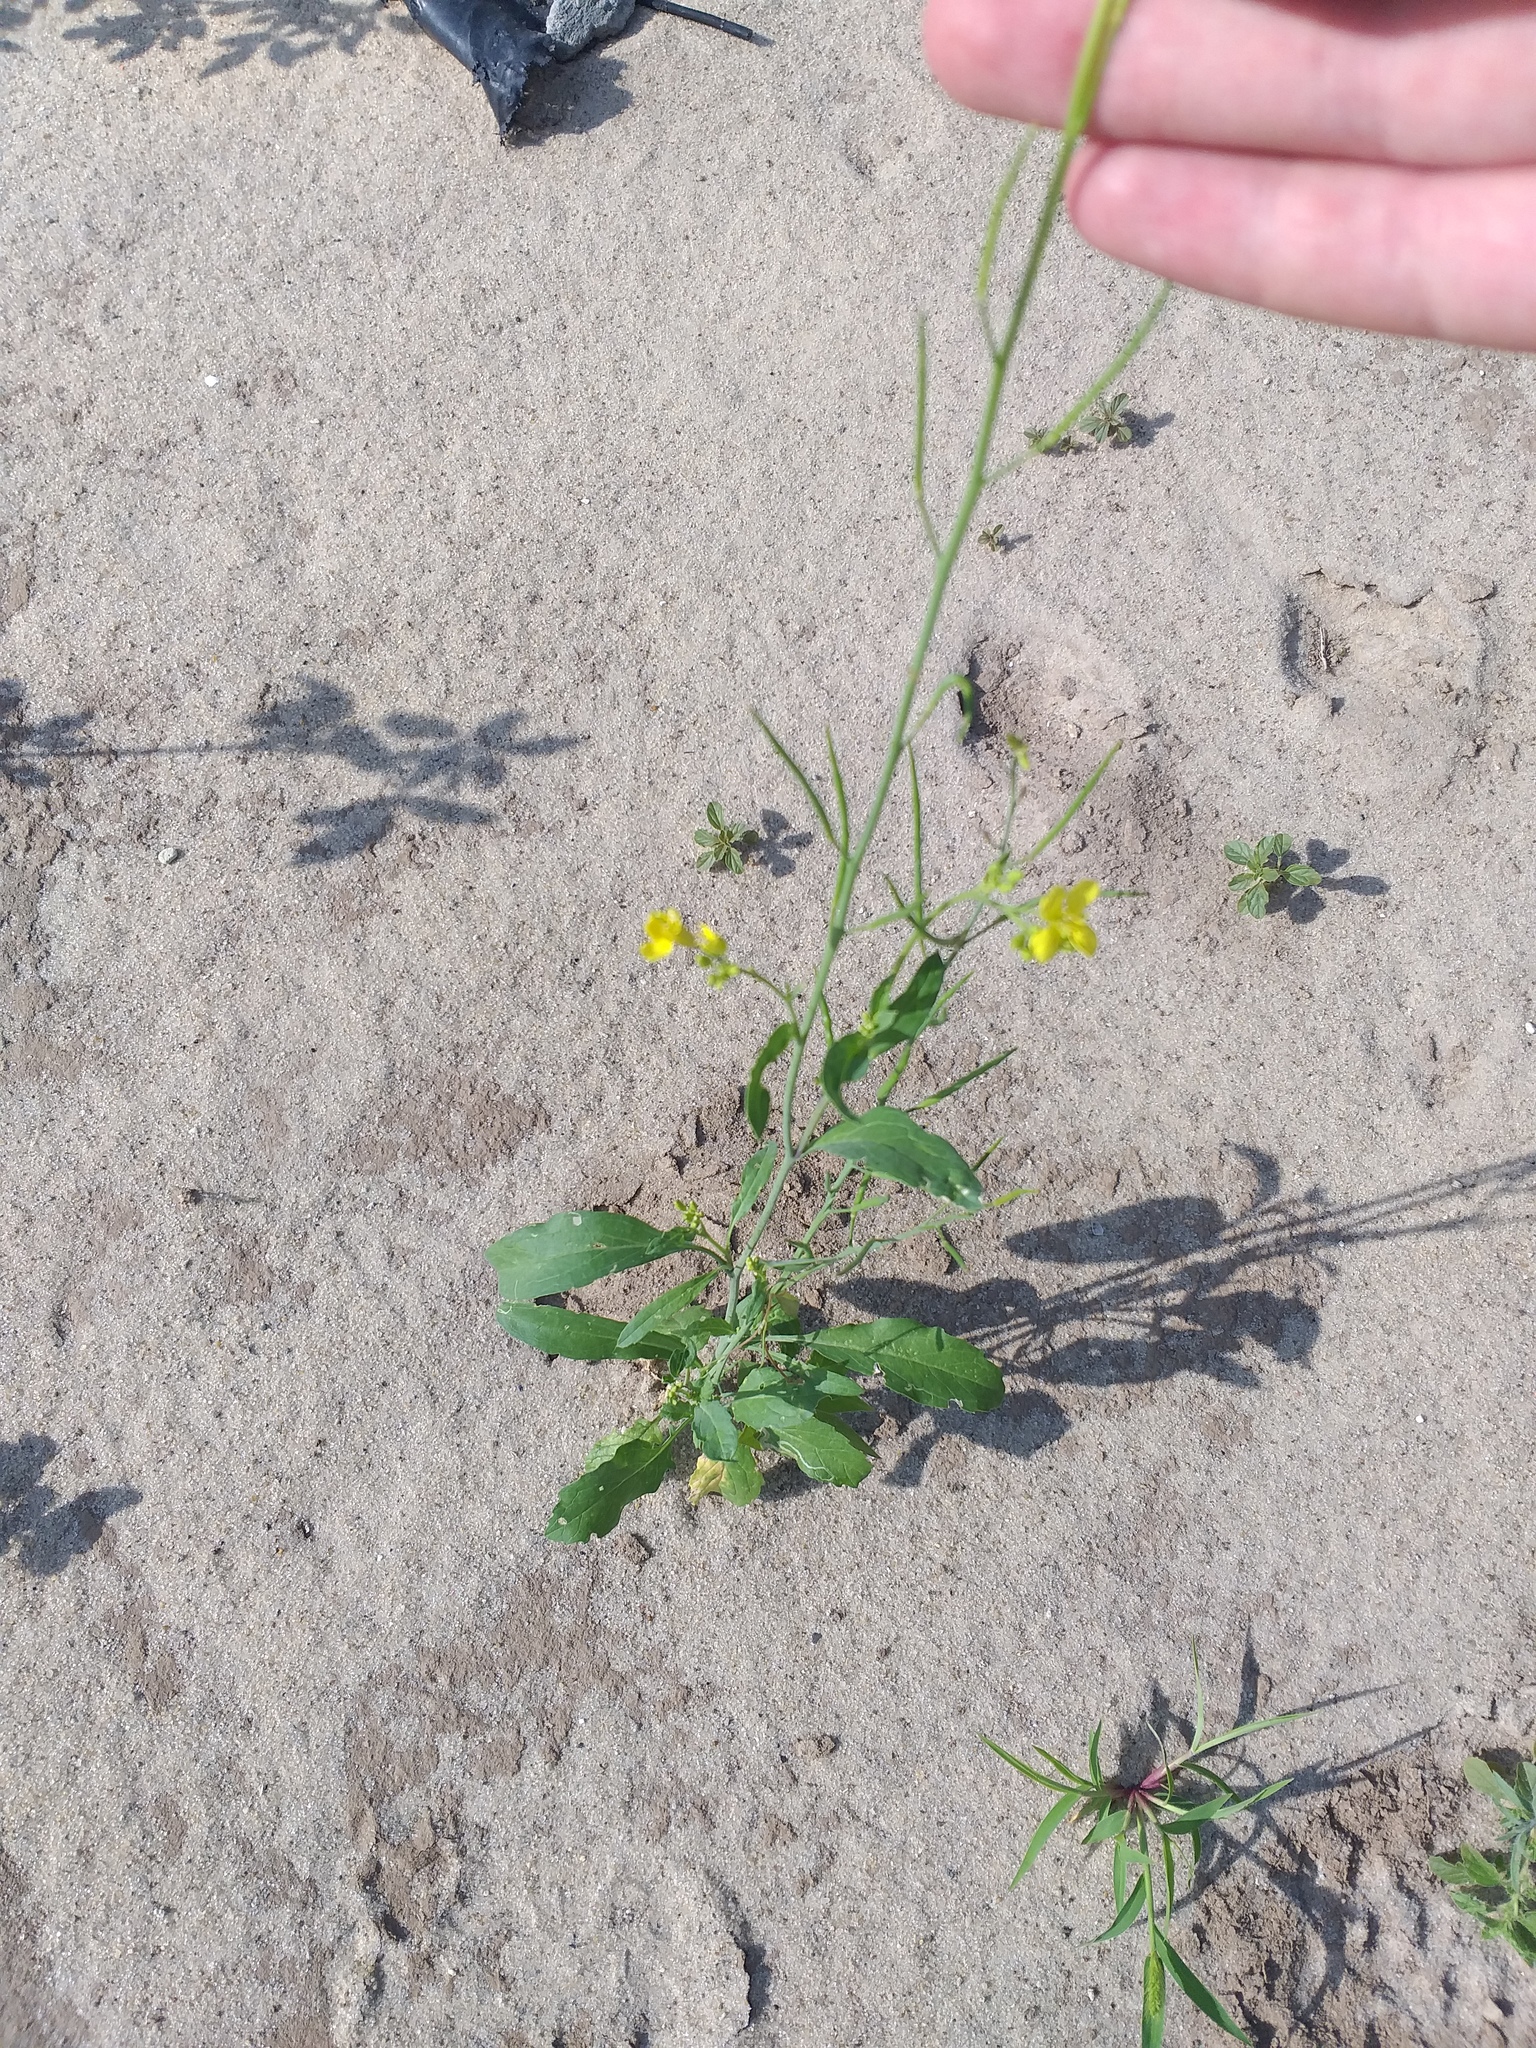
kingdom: Plantae
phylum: Tracheophyta
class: Magnoliopsida
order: Brassicales
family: Brassicaceae
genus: Brassica
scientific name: Brassica juncea
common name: Brown mustard
